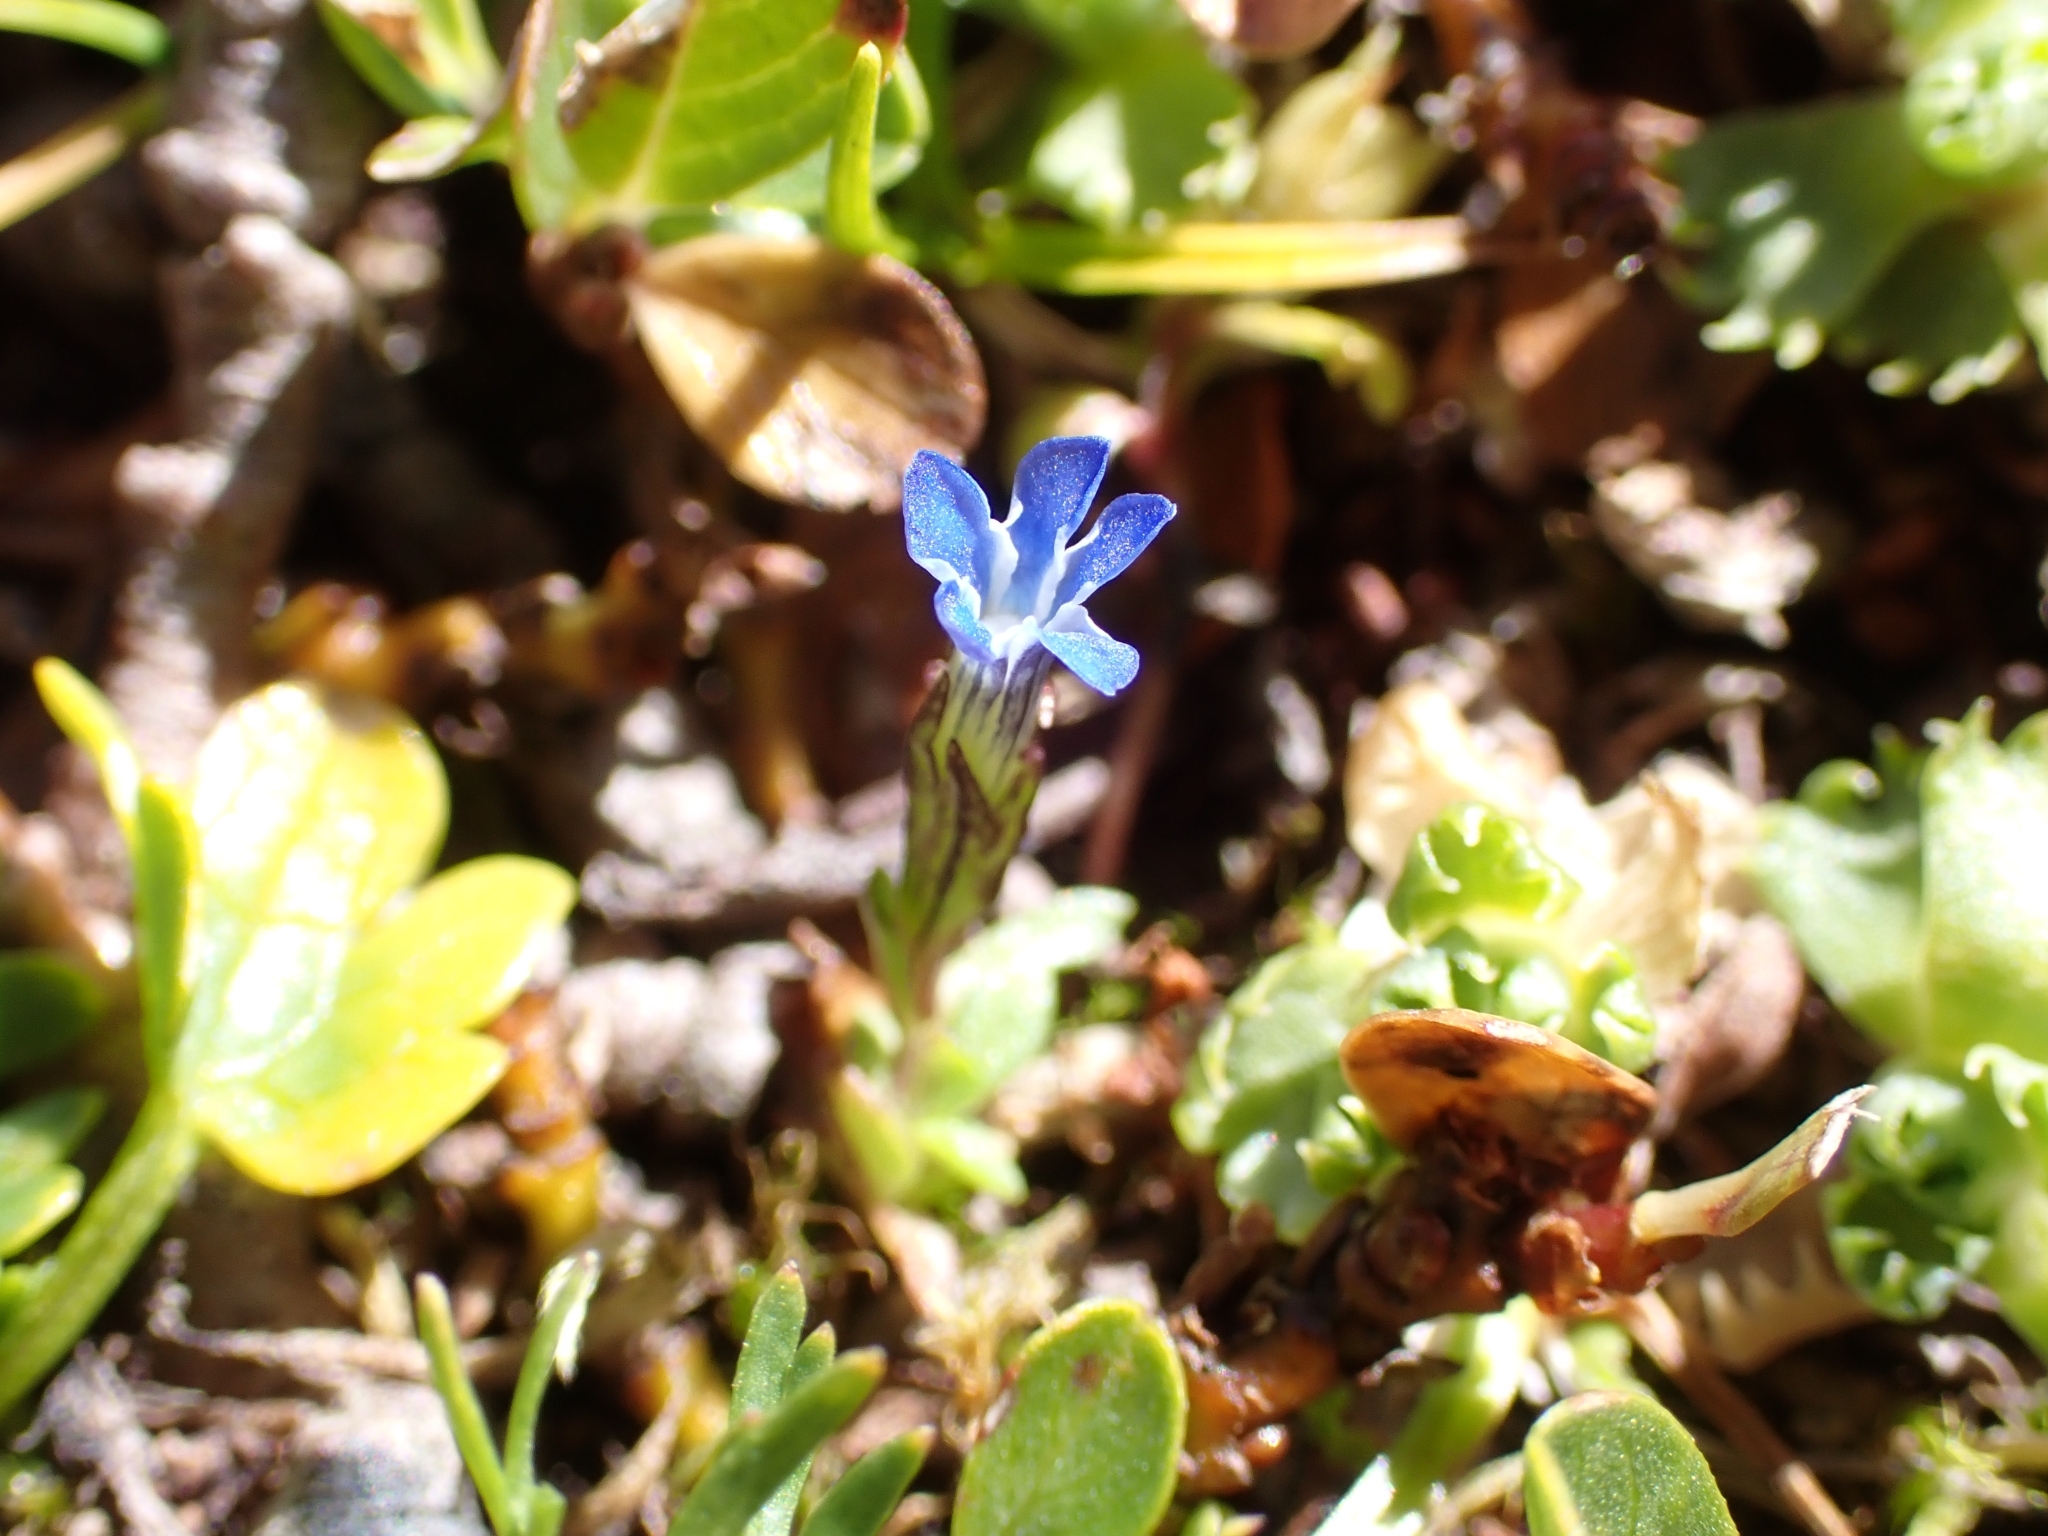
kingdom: Plantae
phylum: Tracheophyta
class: Magnoliopsida
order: Gentianales
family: Gentianaceae
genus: Gentiana
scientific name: Gentiana nivalis
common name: Alpine gentian
